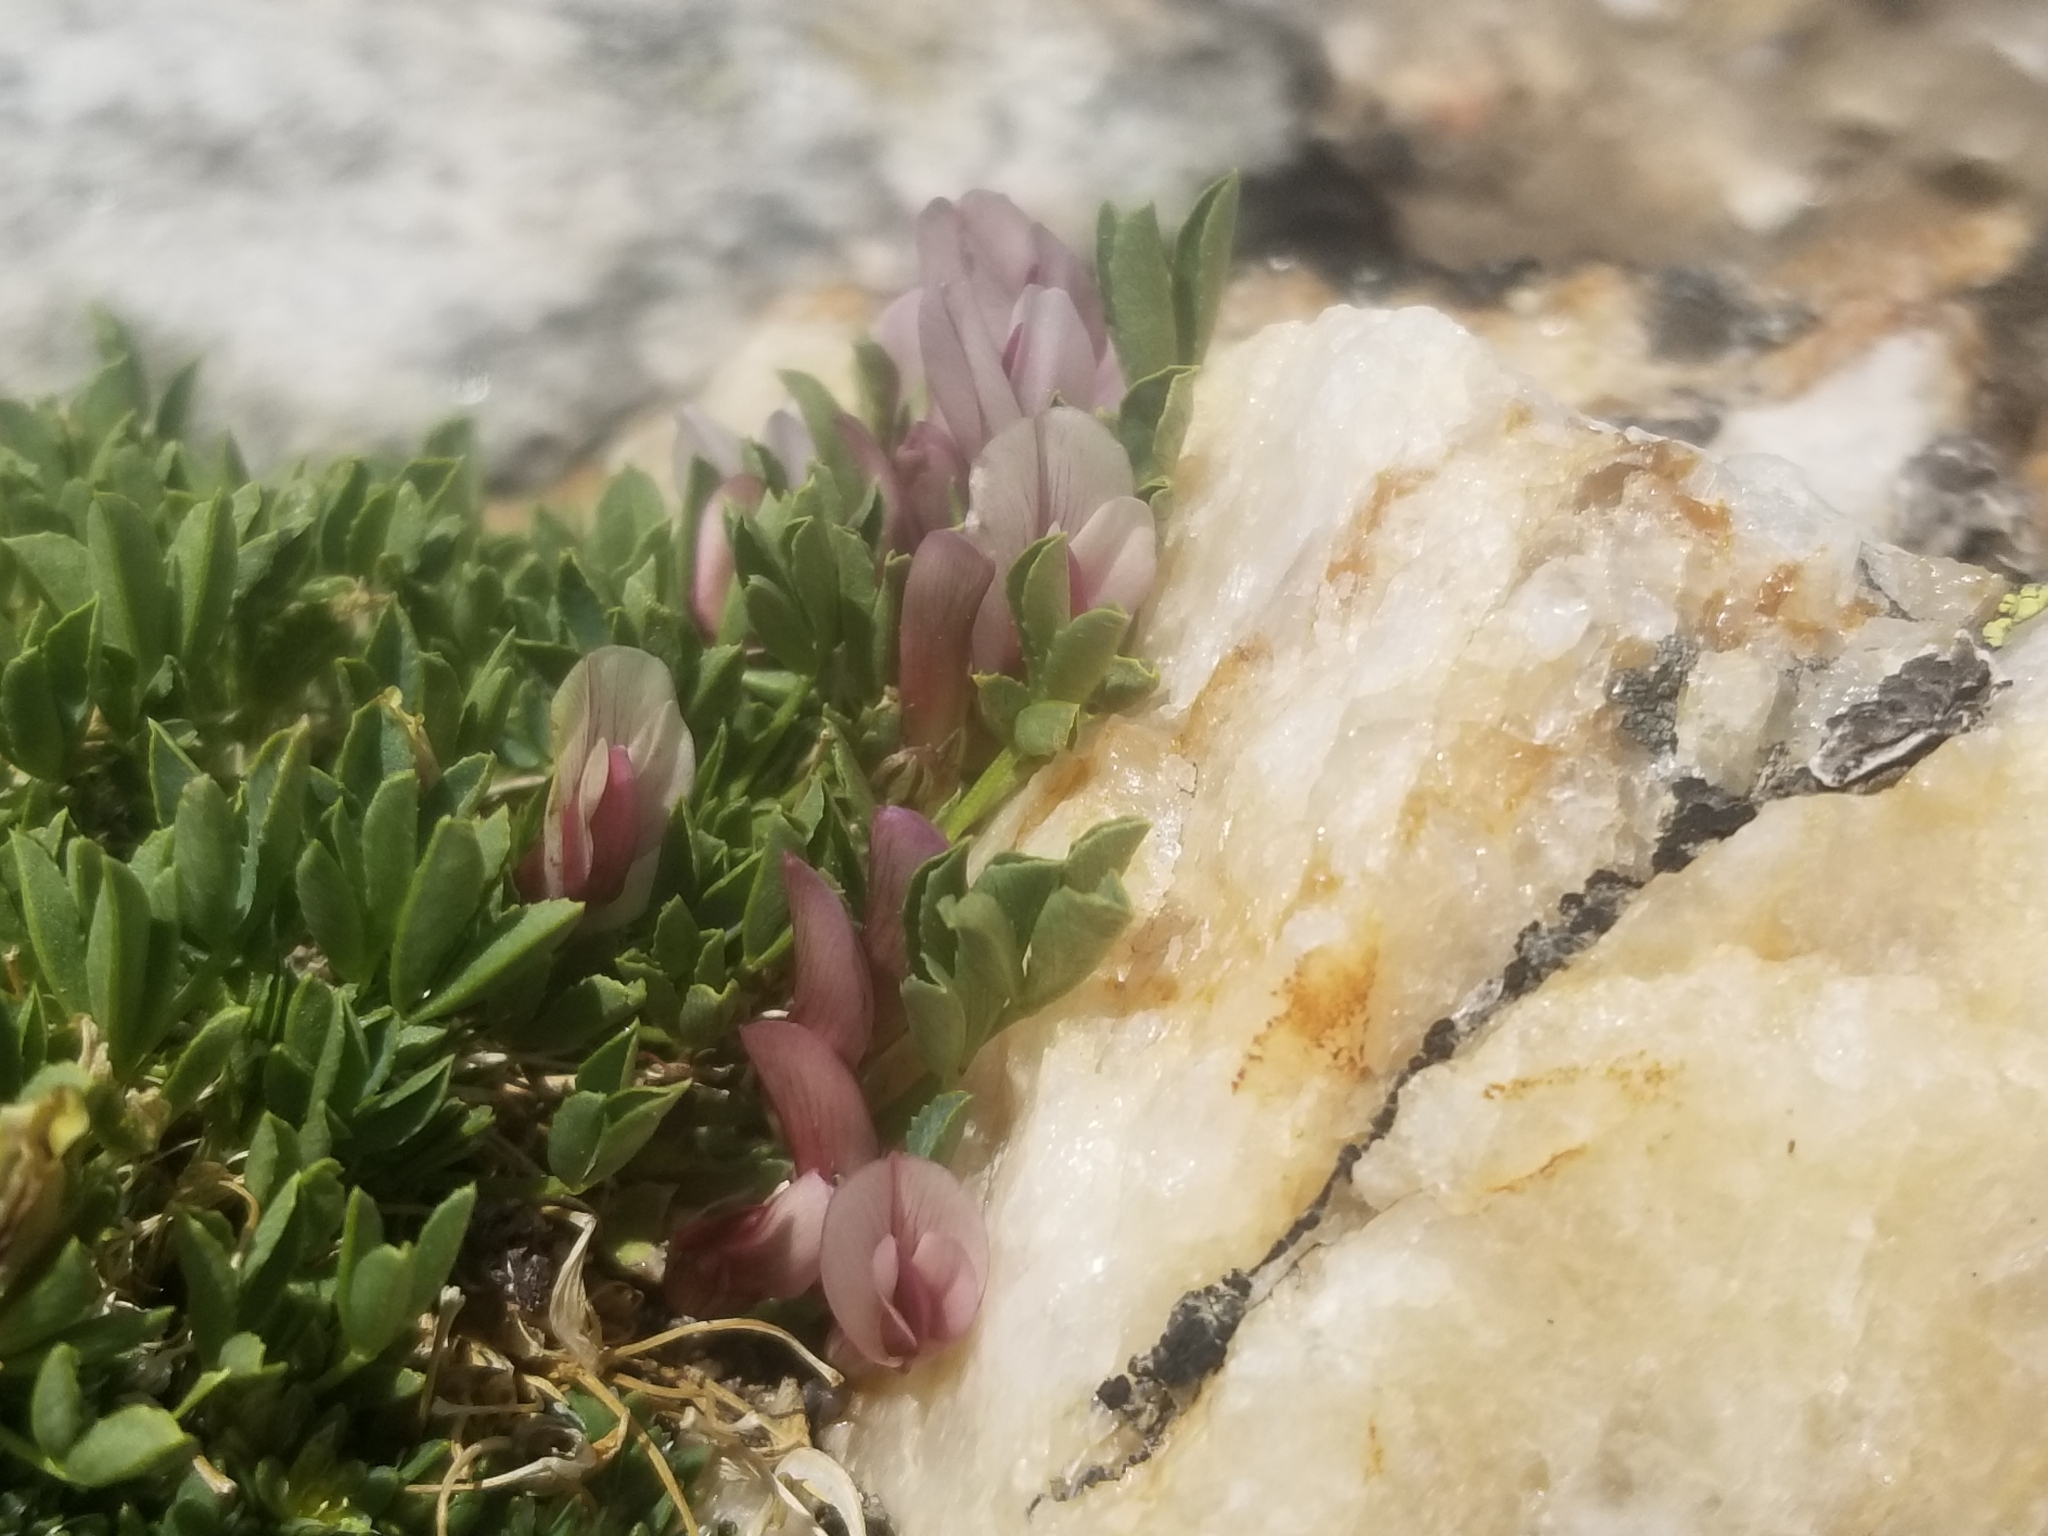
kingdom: Plantae
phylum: Tracheophyta
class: Magnoliopsida
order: Fabales
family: Fabaceae
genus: Trifolium
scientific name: Trifolium nanum
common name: Tundra clover
